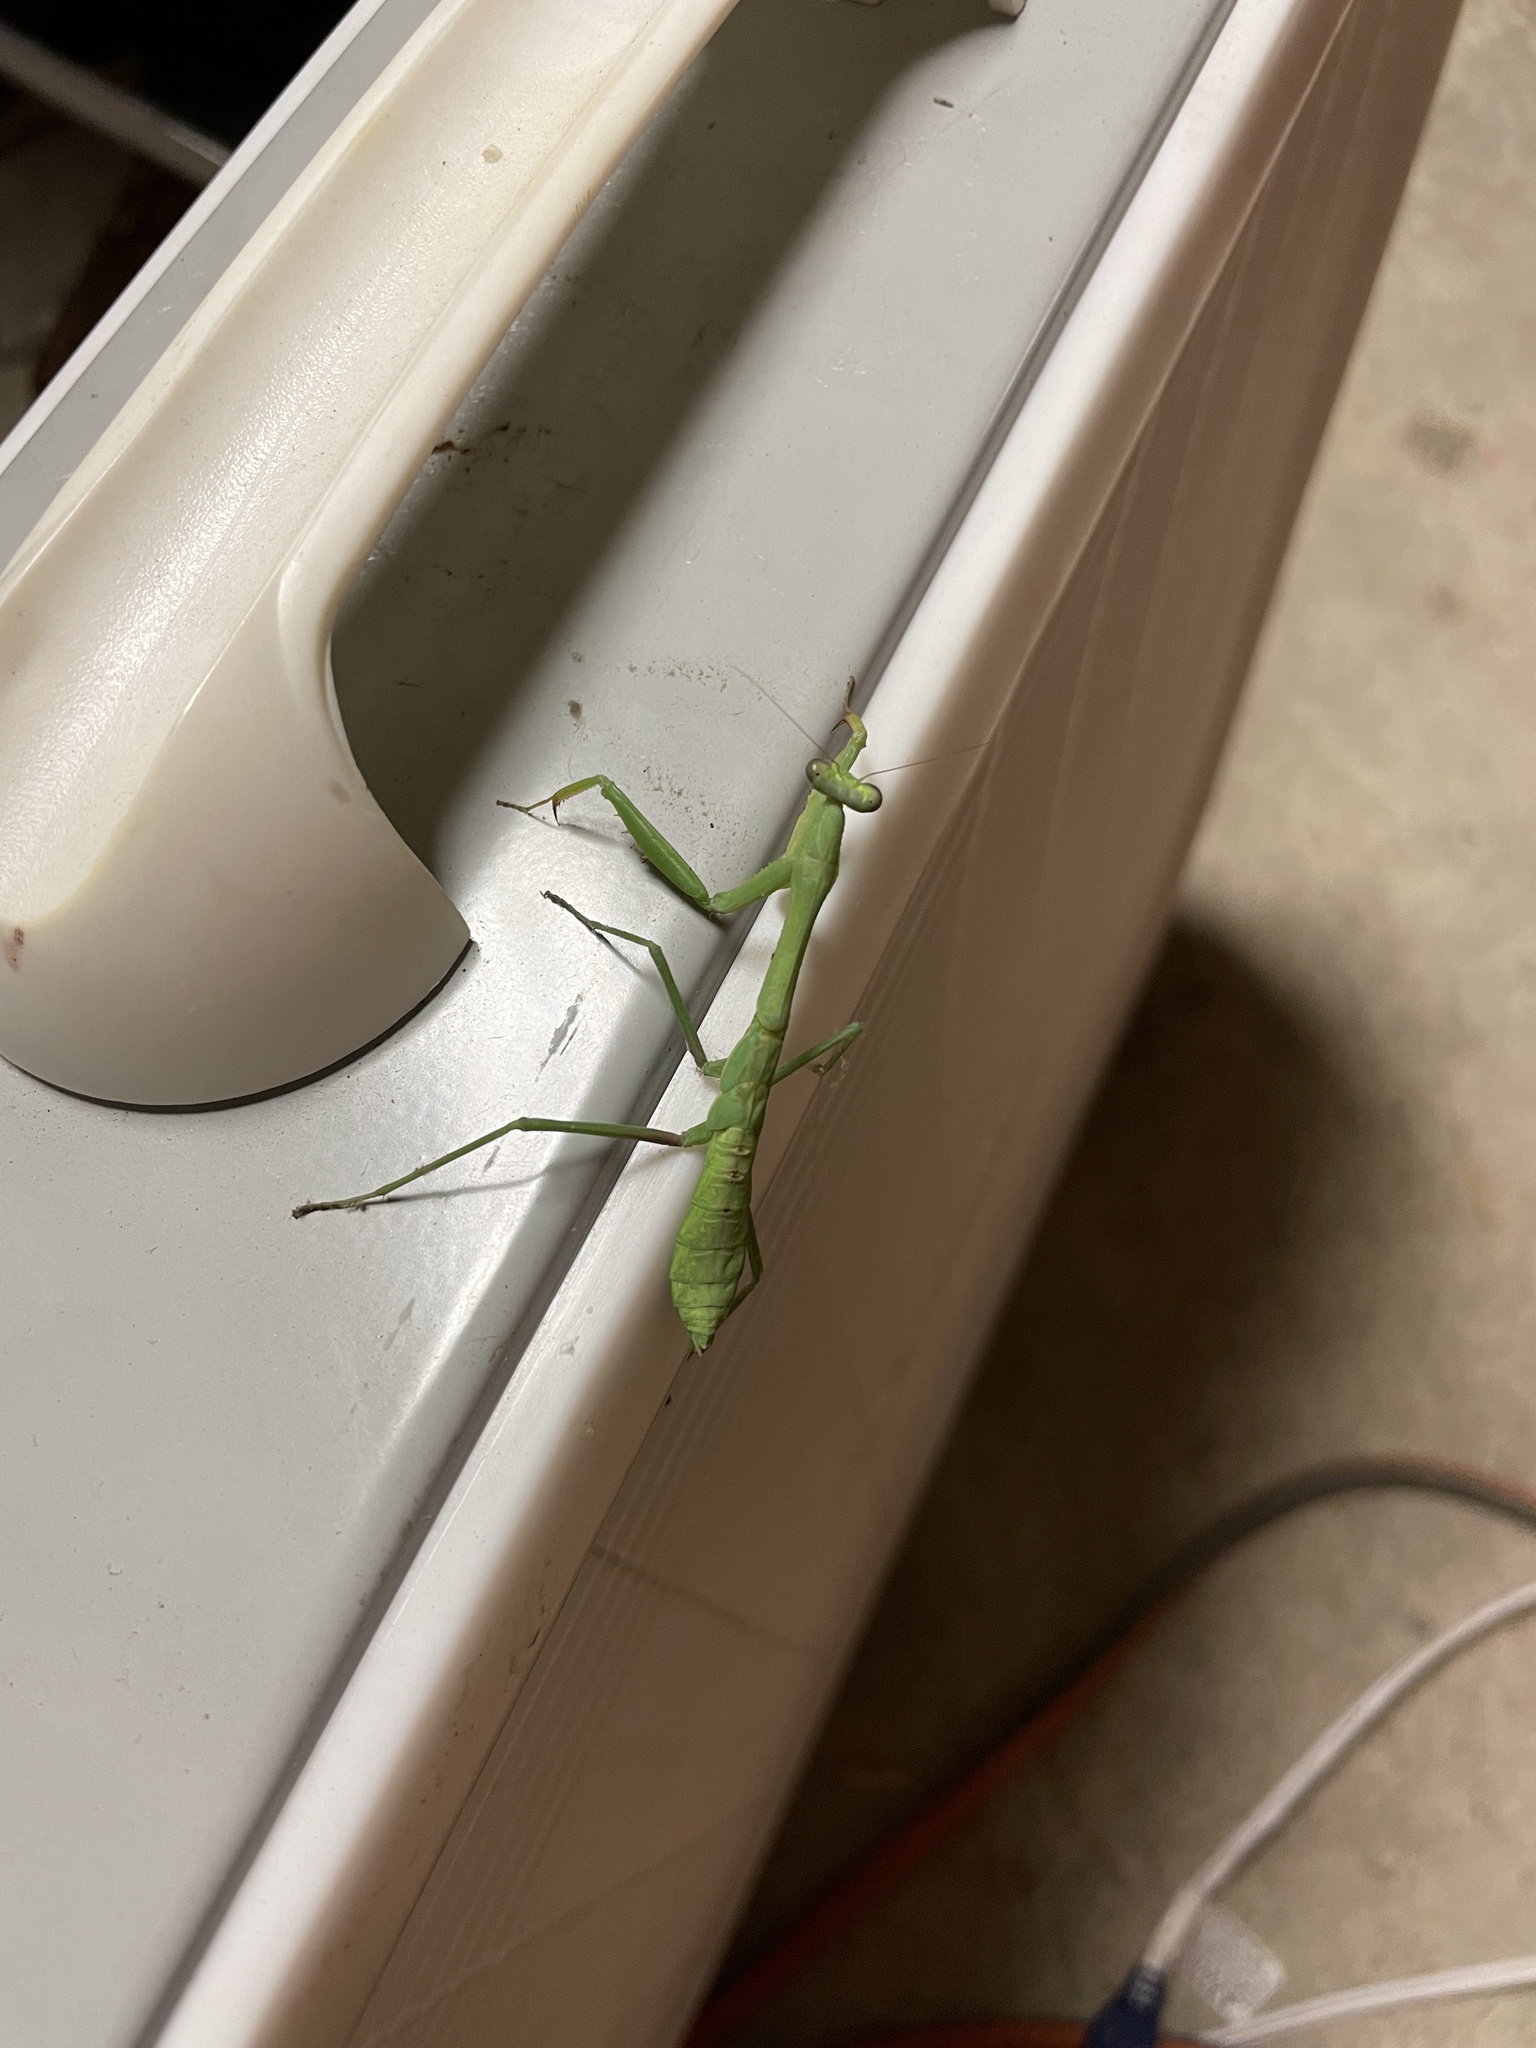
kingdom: Animalia
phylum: Arthropoda
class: Insecta
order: Mantodea
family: Mantidae
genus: Stagmomantis
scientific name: Stagmomantis carolina
